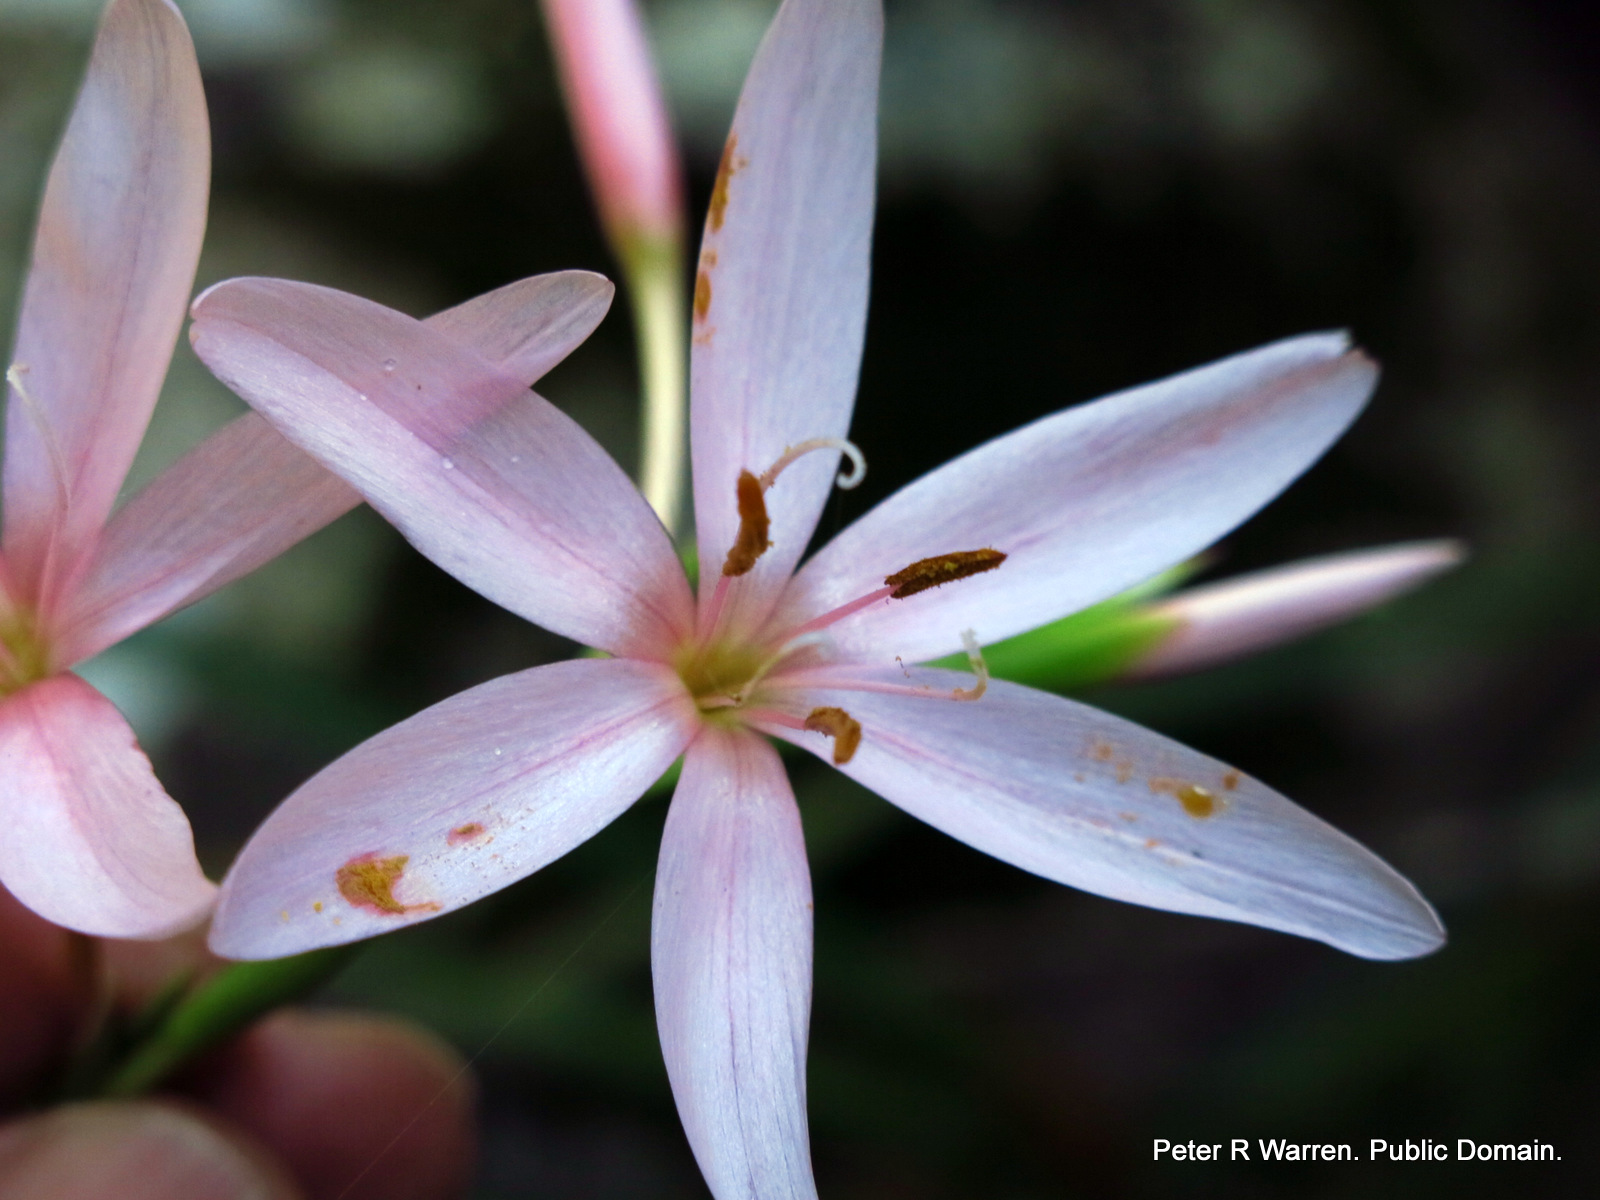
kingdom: Plantae
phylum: Tracheophyta
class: Liliopsida
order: Asparagales
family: Iridaceae
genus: Hesperantha
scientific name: Hesperantha coccinea
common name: River-lily
